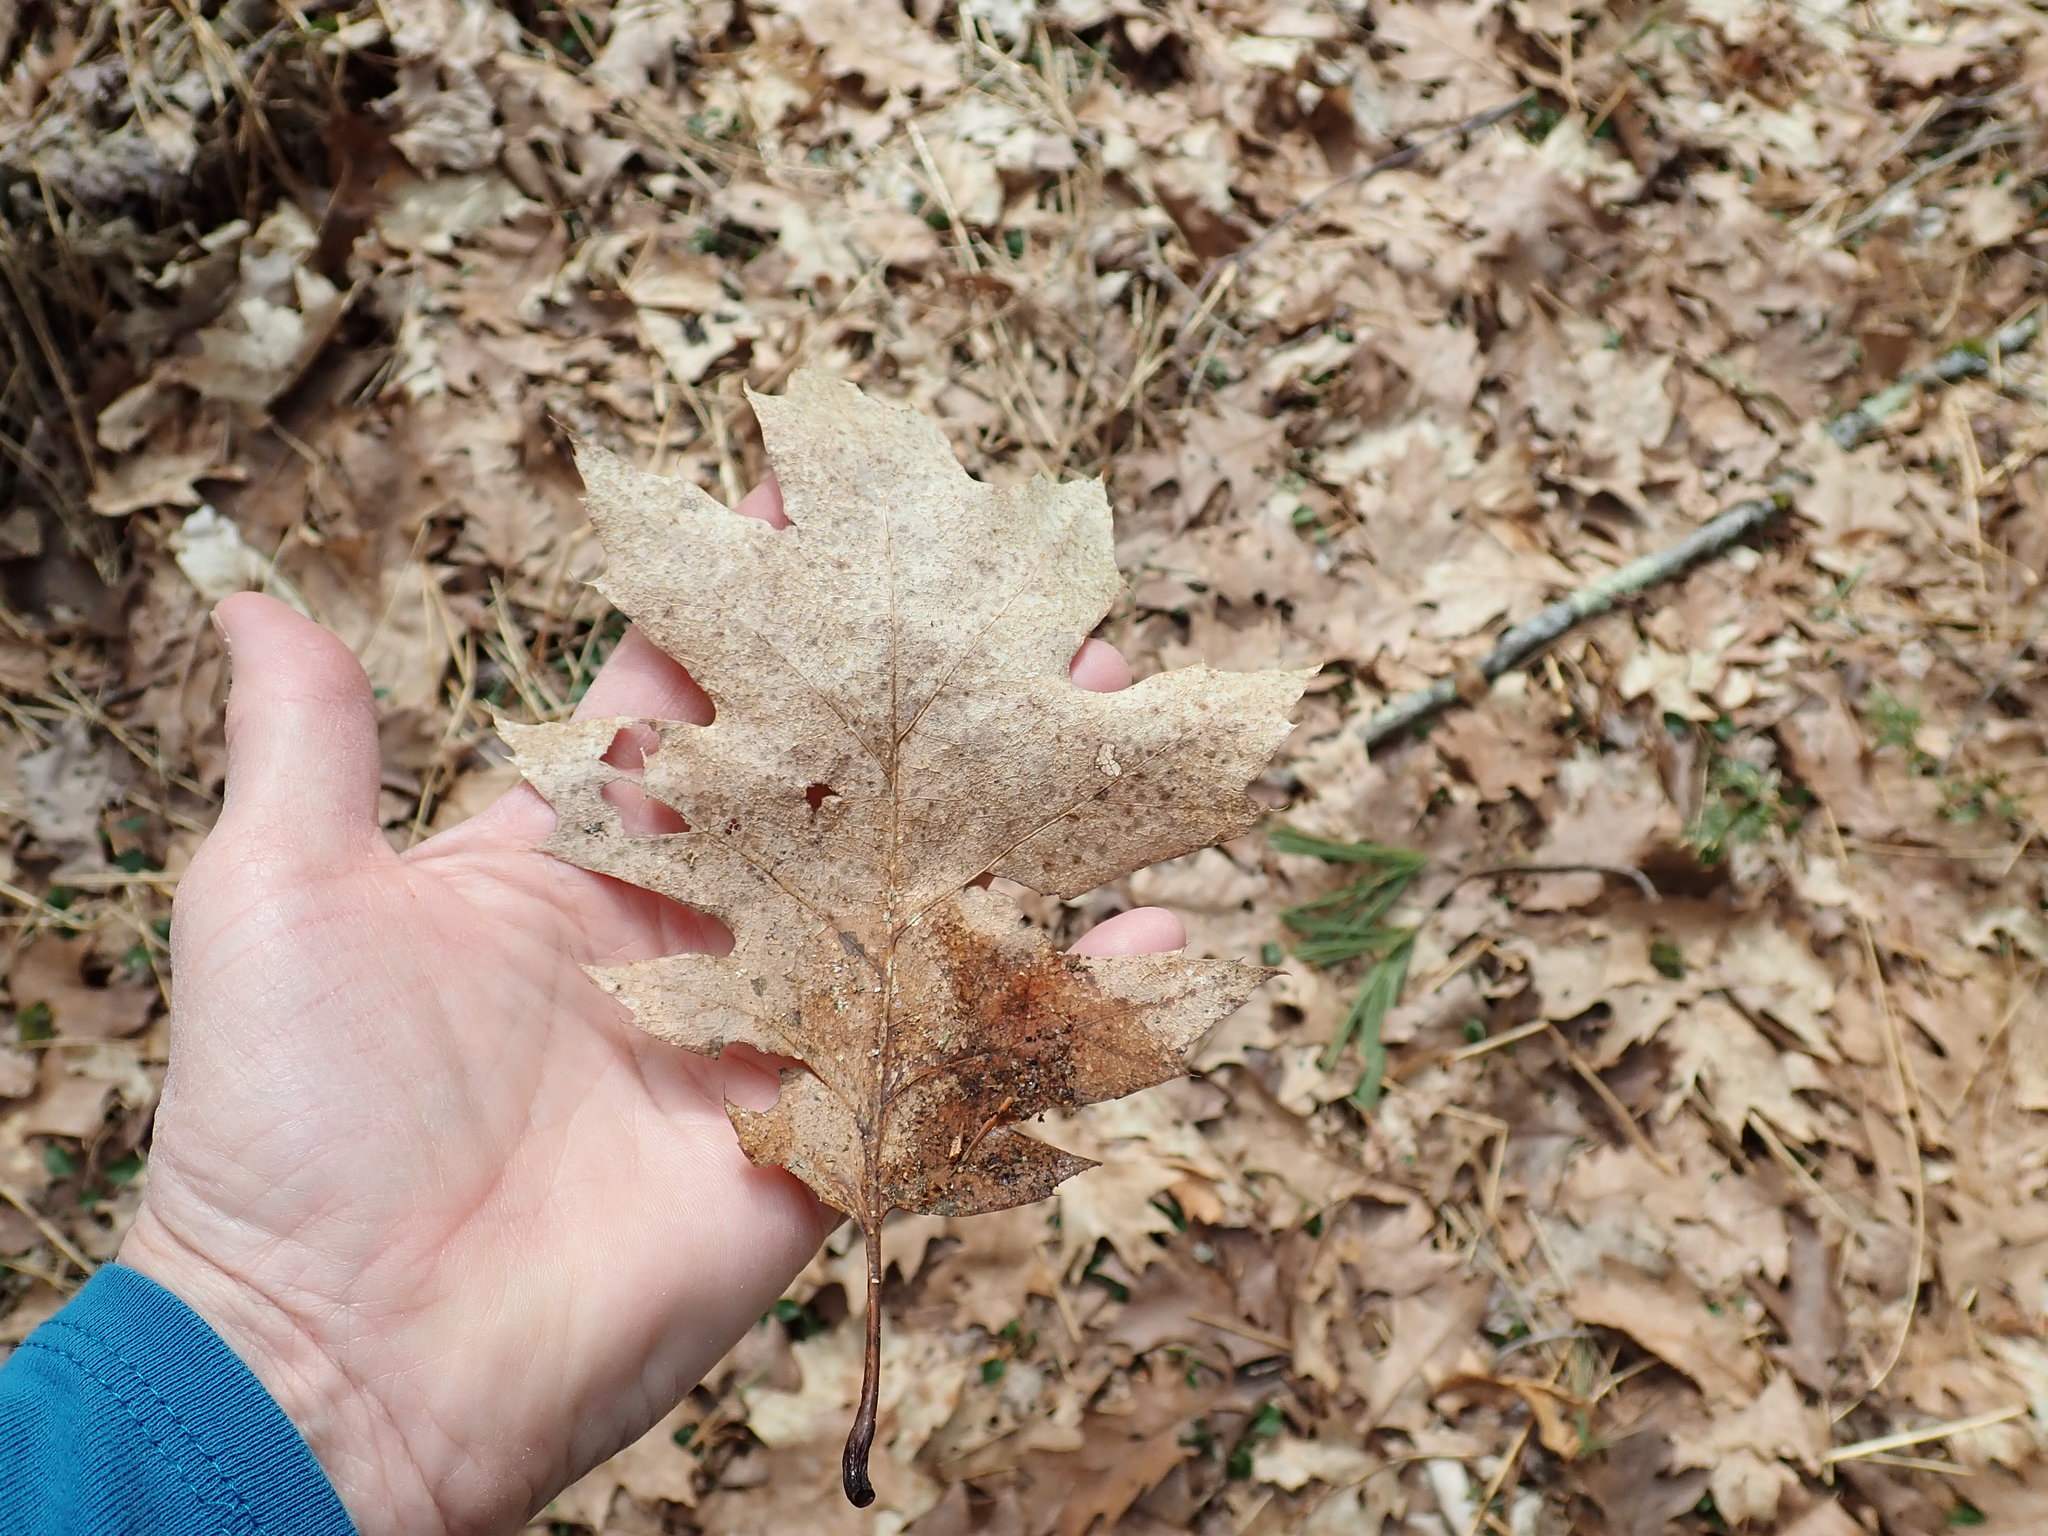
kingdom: Plantae
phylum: Tracheophyta
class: Magnoliopsida
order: Fagales
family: Fagaceae
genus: Quercus
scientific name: Quercus rubra
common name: Red oak
